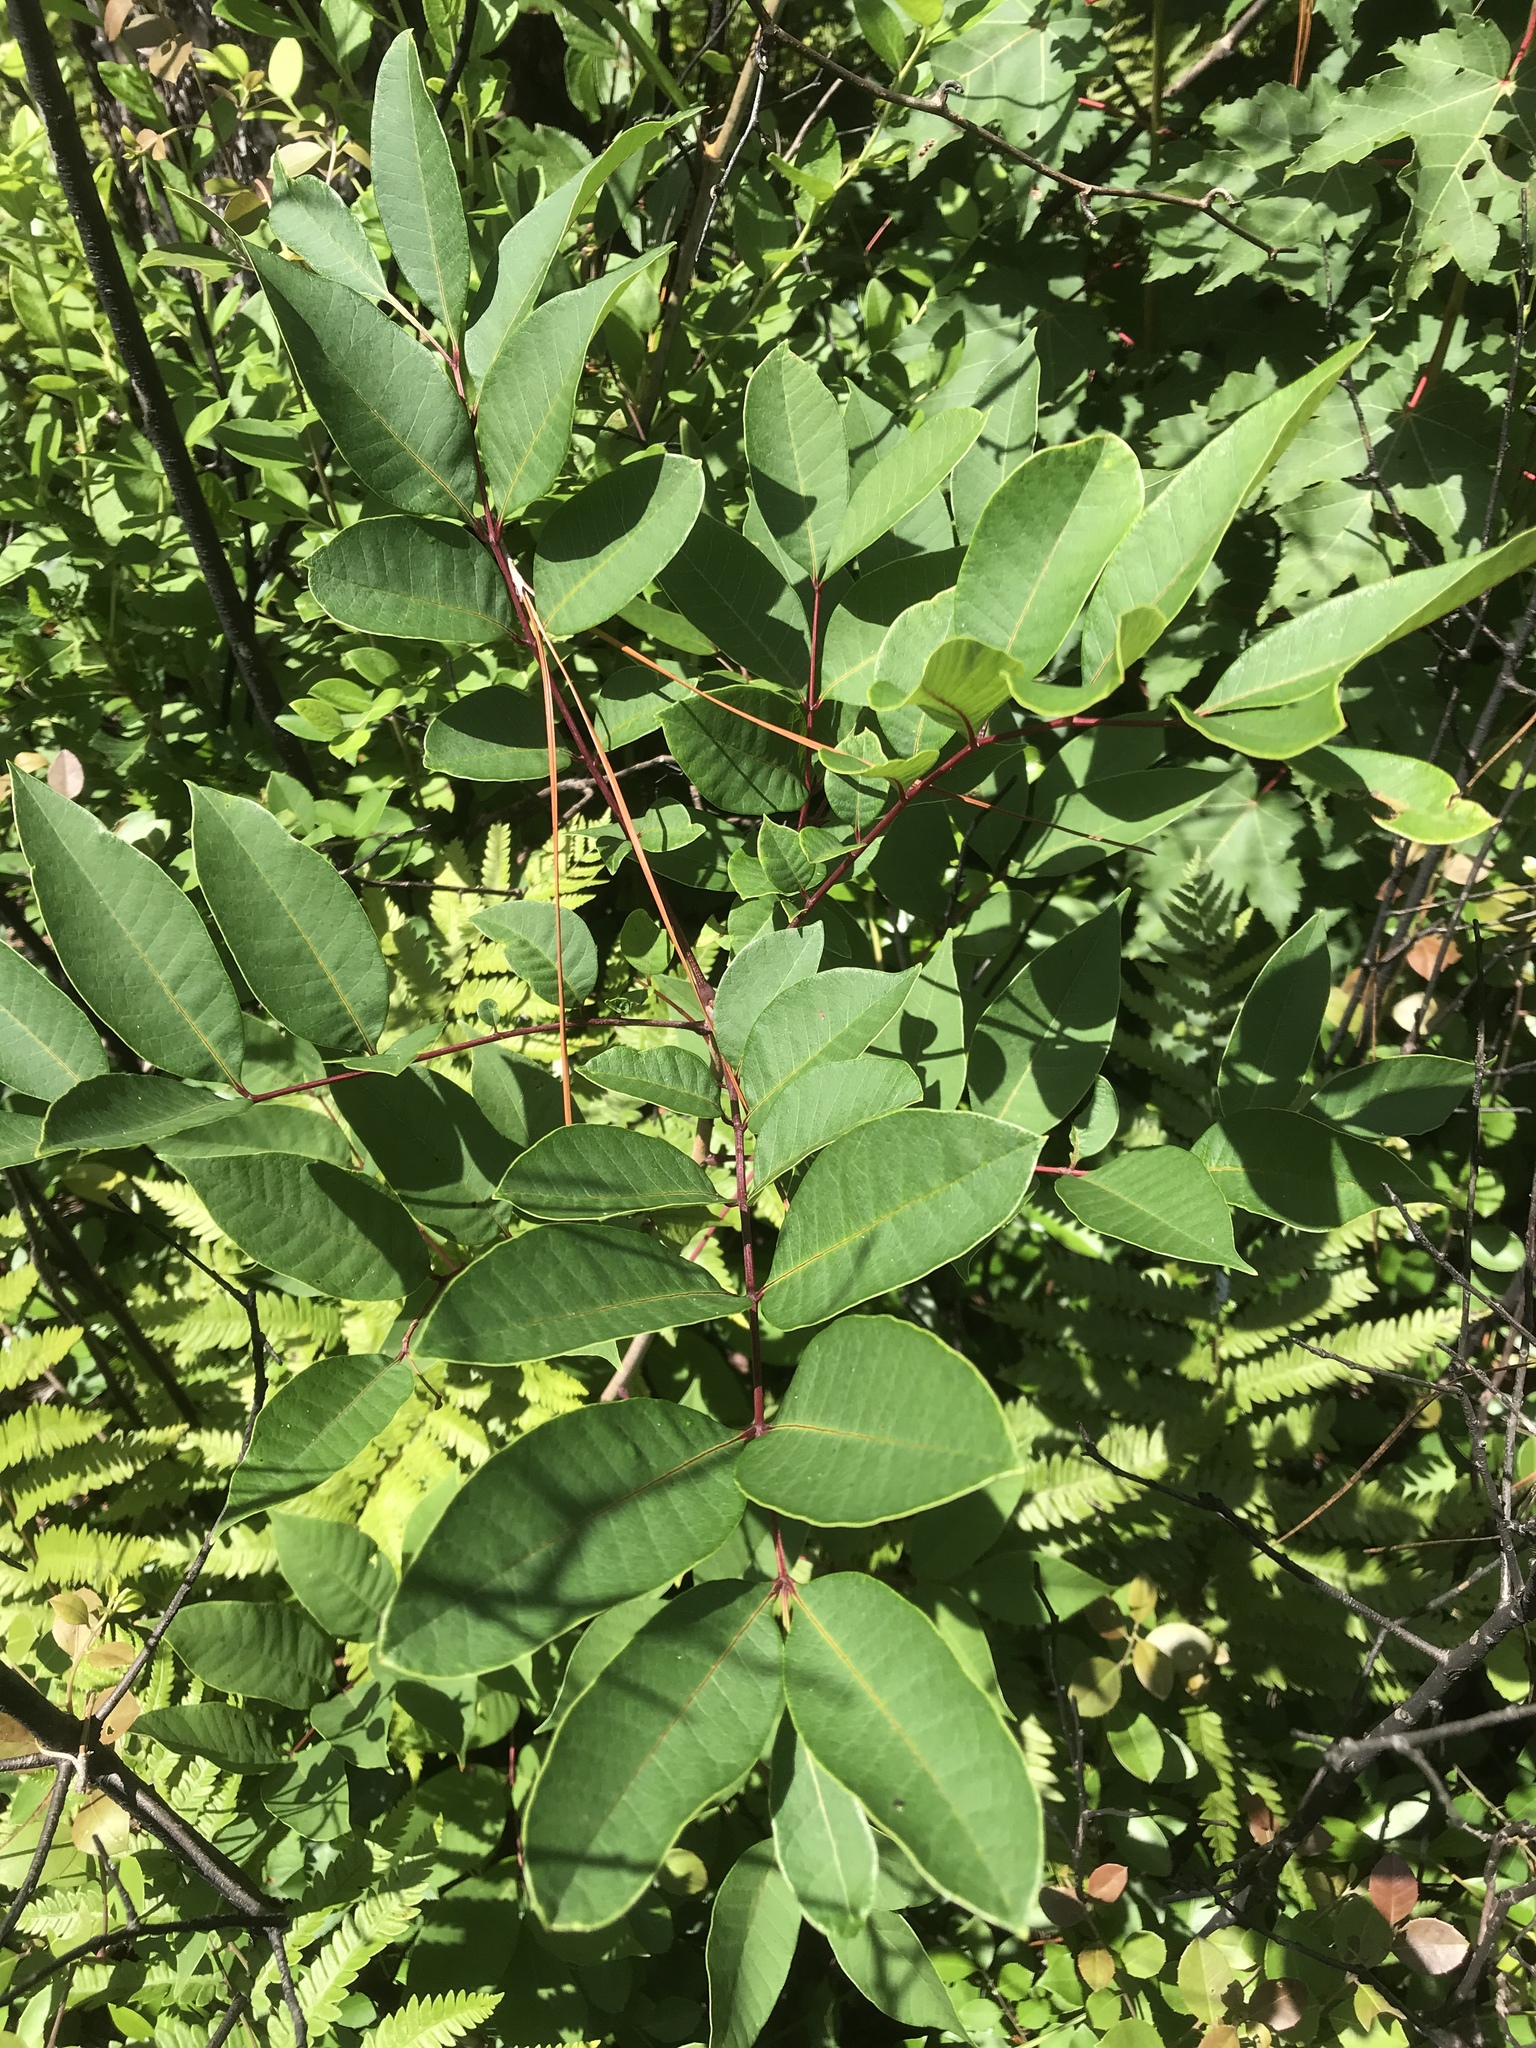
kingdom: Plantae
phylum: Tracheophyta
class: Magnoliopsida
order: Sapindales
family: Anacardiaceae
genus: Toxicodendron
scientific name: Toxicodendron vernix
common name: Poison sumac
